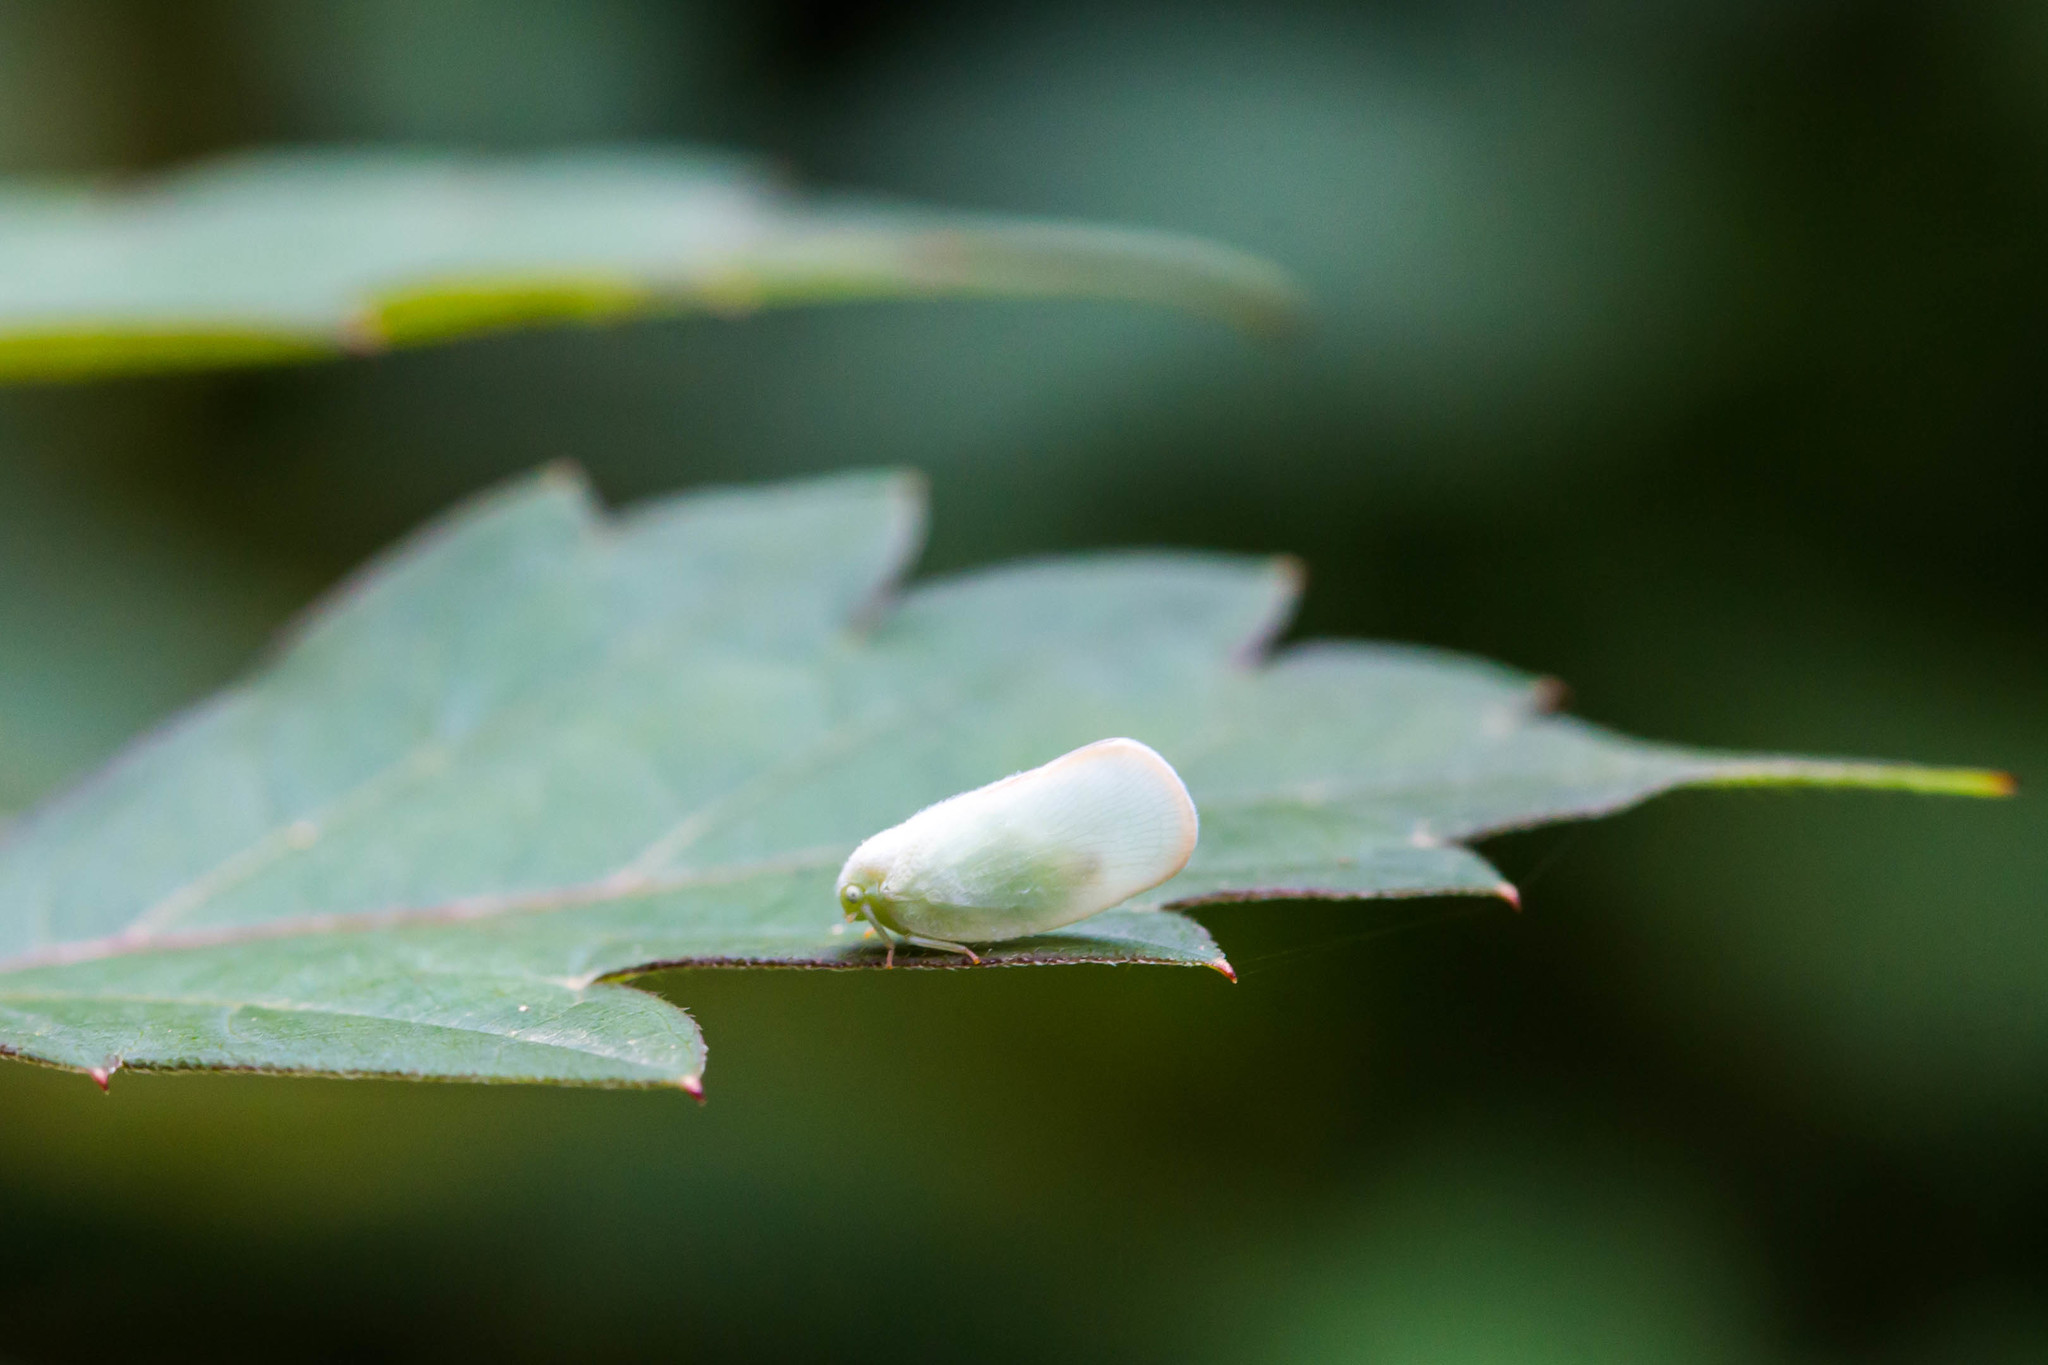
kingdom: Animalia
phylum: Arthropoda
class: Insecta
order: Hemiptera
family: Flatidae
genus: Ormenoides
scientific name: Ormenoides venusta
